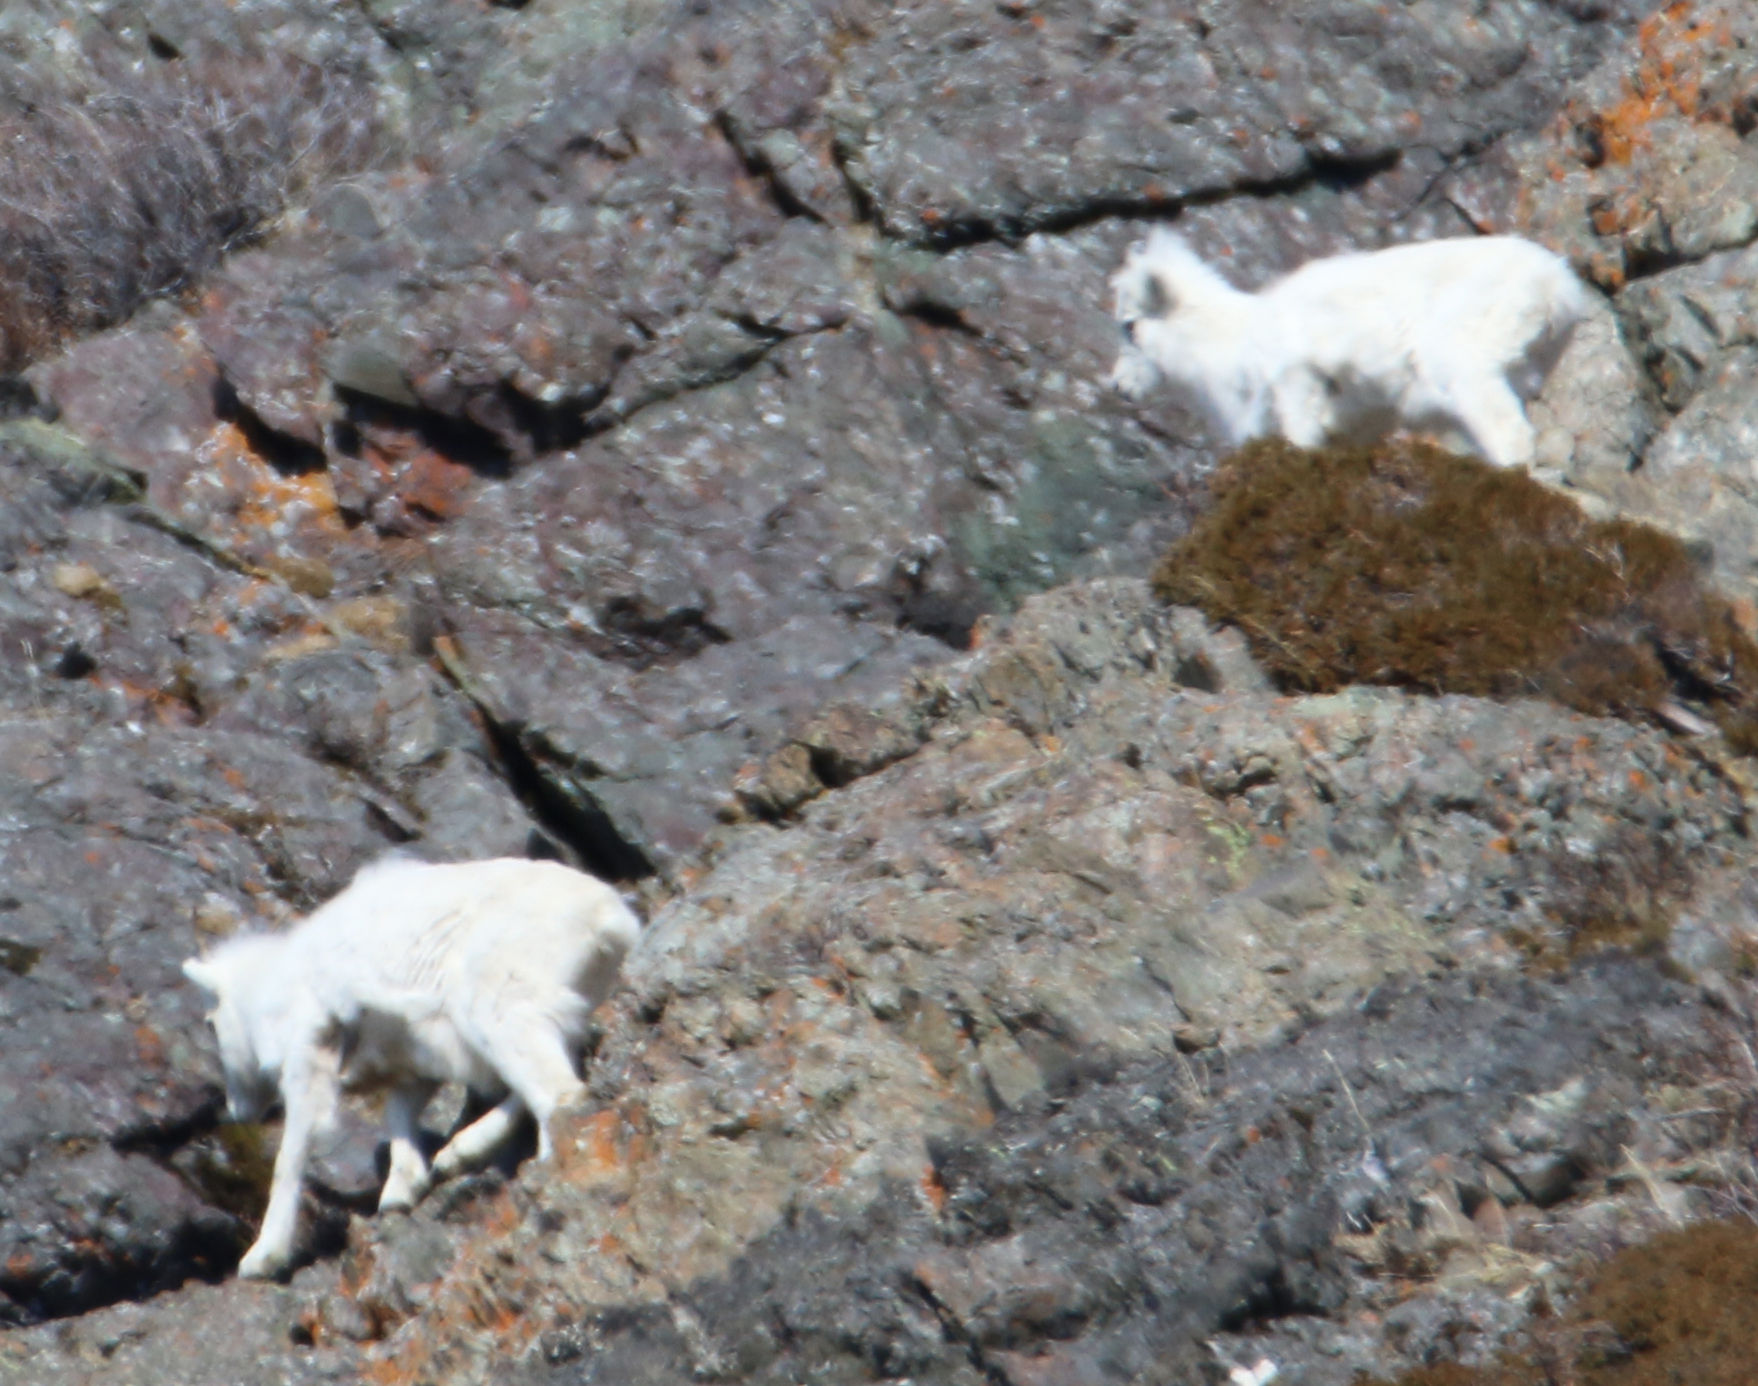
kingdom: Animalia
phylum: Chordata
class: Mammalia
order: Artiodactyla
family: Bovidae
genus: Ovis
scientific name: Ovis dalli
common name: Dall's sheep
